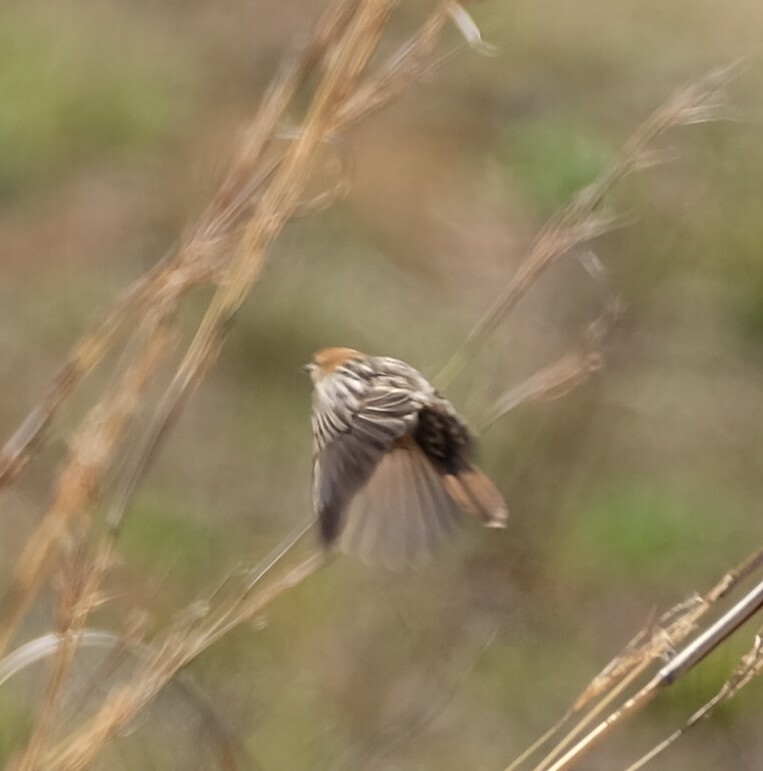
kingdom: Animalia
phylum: Chordata
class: Aves
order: Passeriformes
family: Cisticolidae
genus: Cisticola
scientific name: Cisticola tinniens
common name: Levaillant's cisticola
